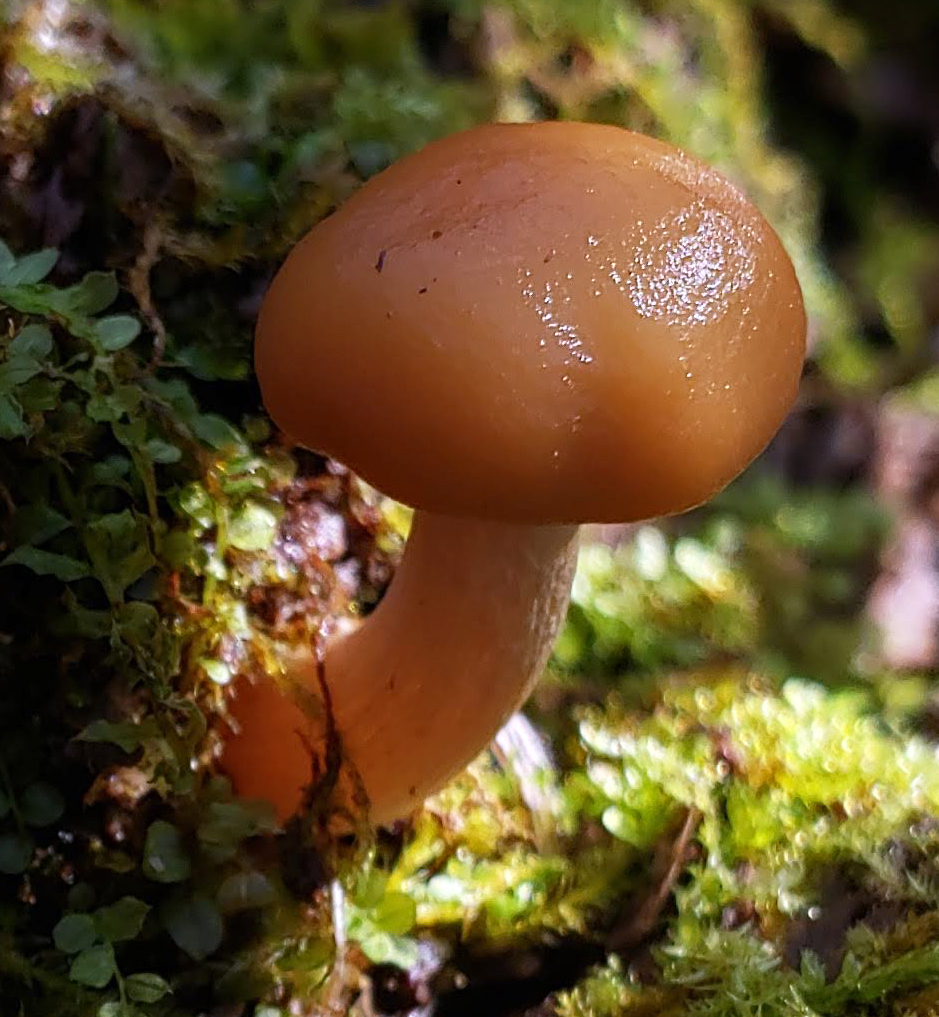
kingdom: Fungi
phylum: Basidiomycota
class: Agaricomycetes
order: Agaricales
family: Hymenogastraceae
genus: Galerina
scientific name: Galerina marginata
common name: Funeral bell
